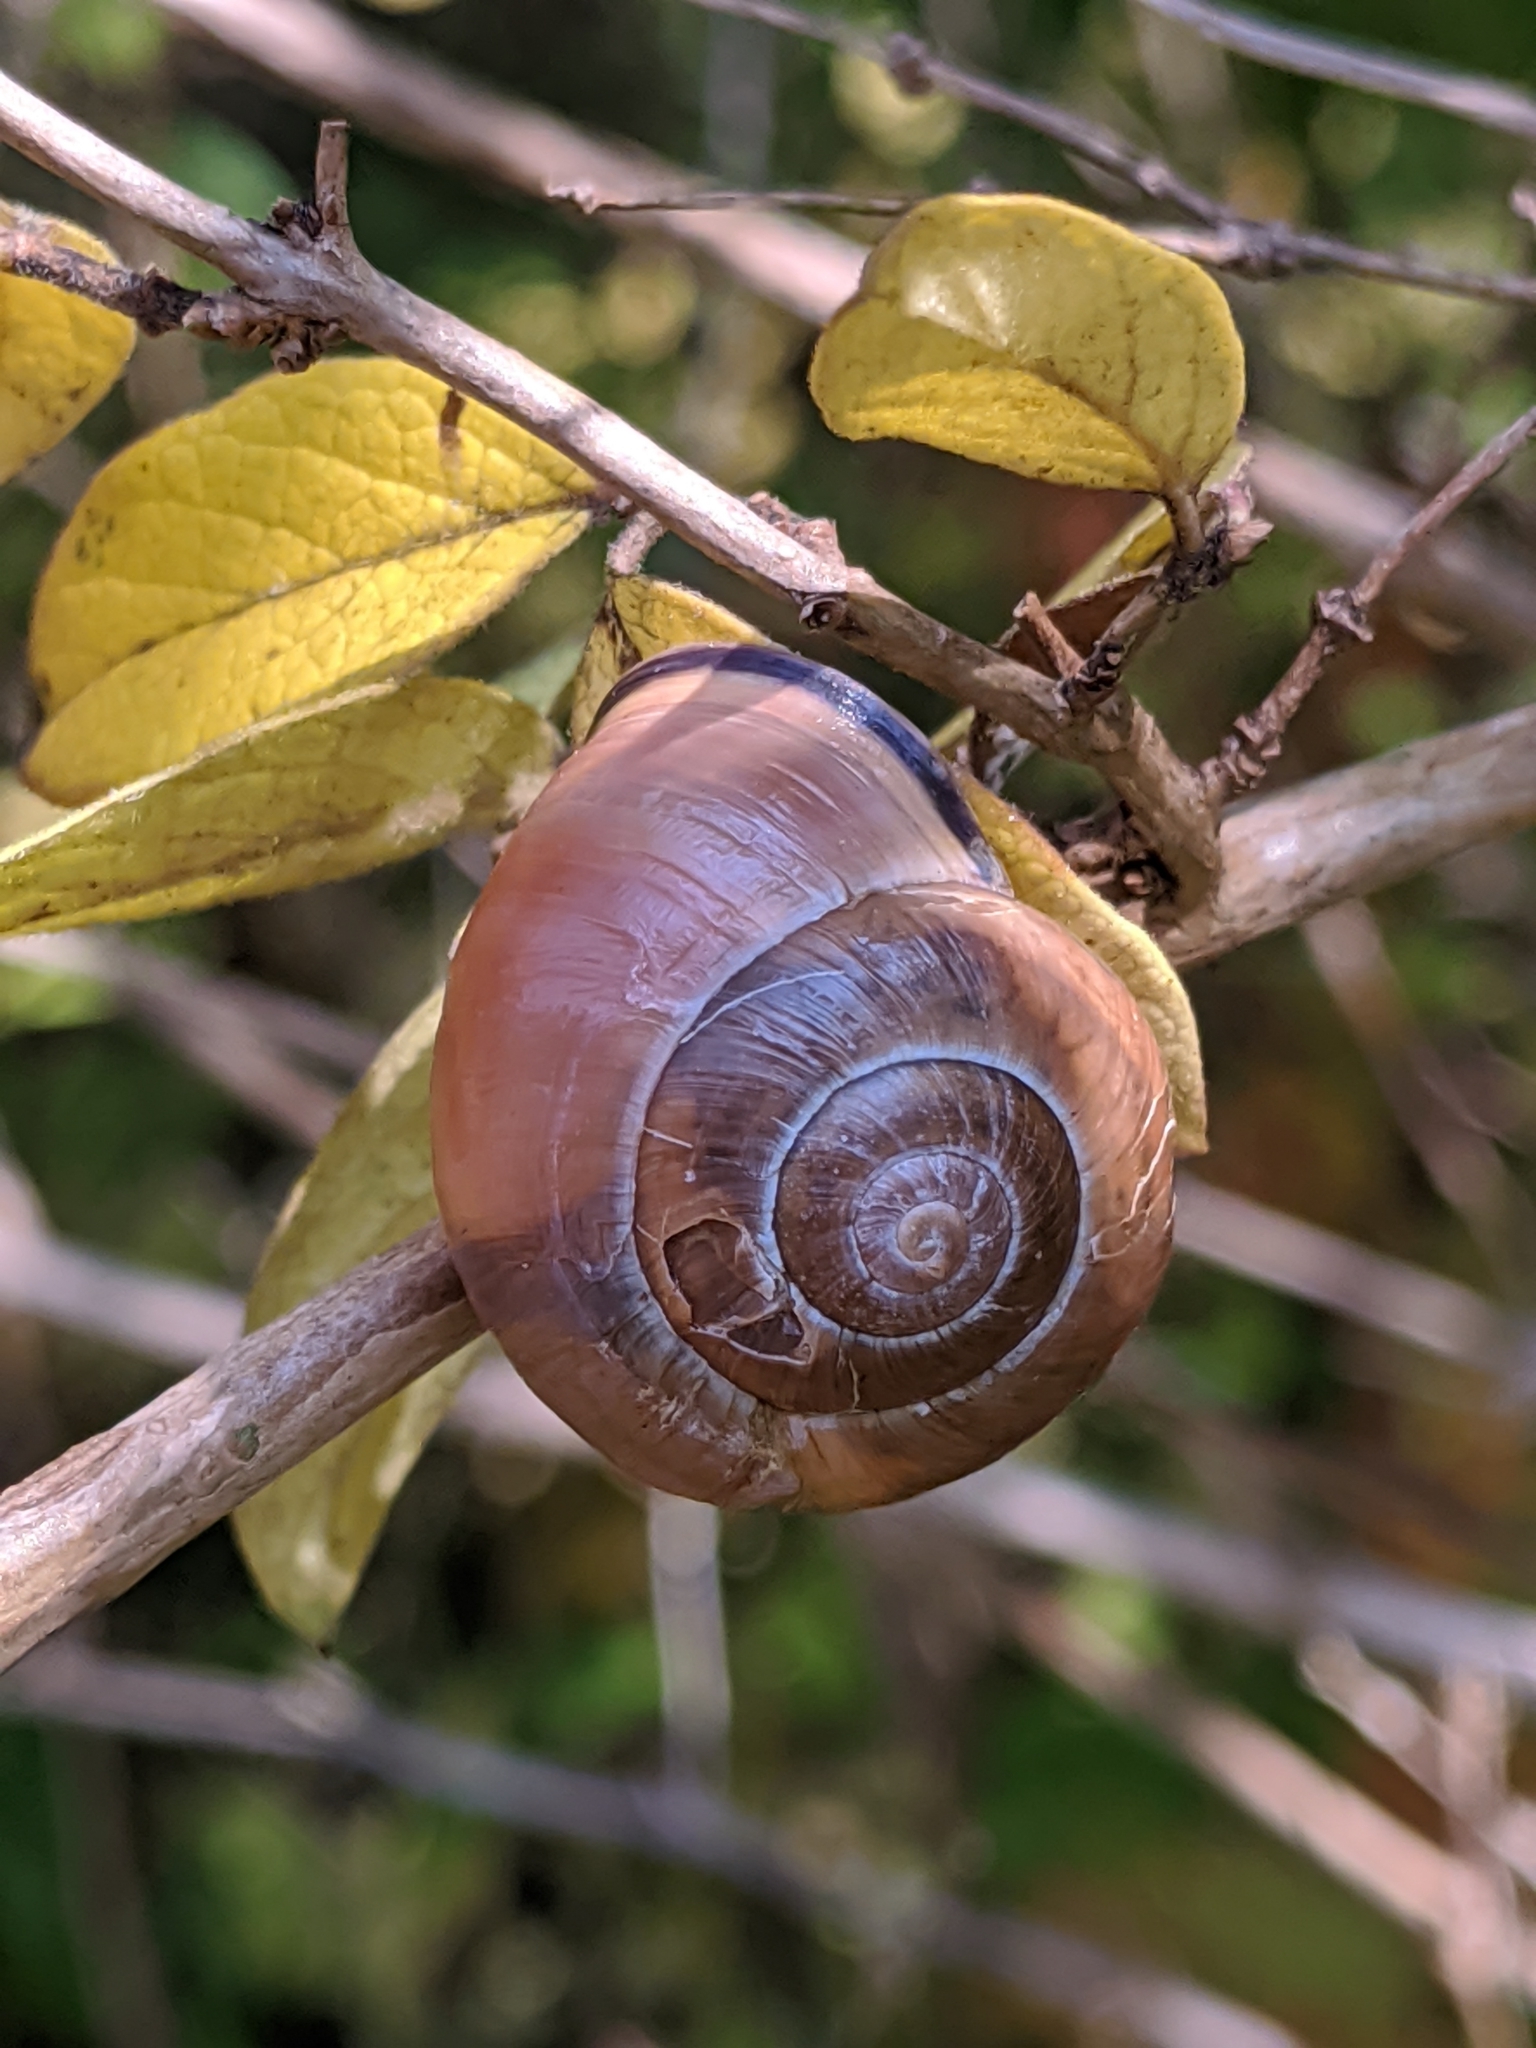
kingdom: Animalia
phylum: Mollusca
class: Gastropoda
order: Stylommatophora
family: Helicidae
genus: Cepaea
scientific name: Cepaea nemoralis
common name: Grovesnail
